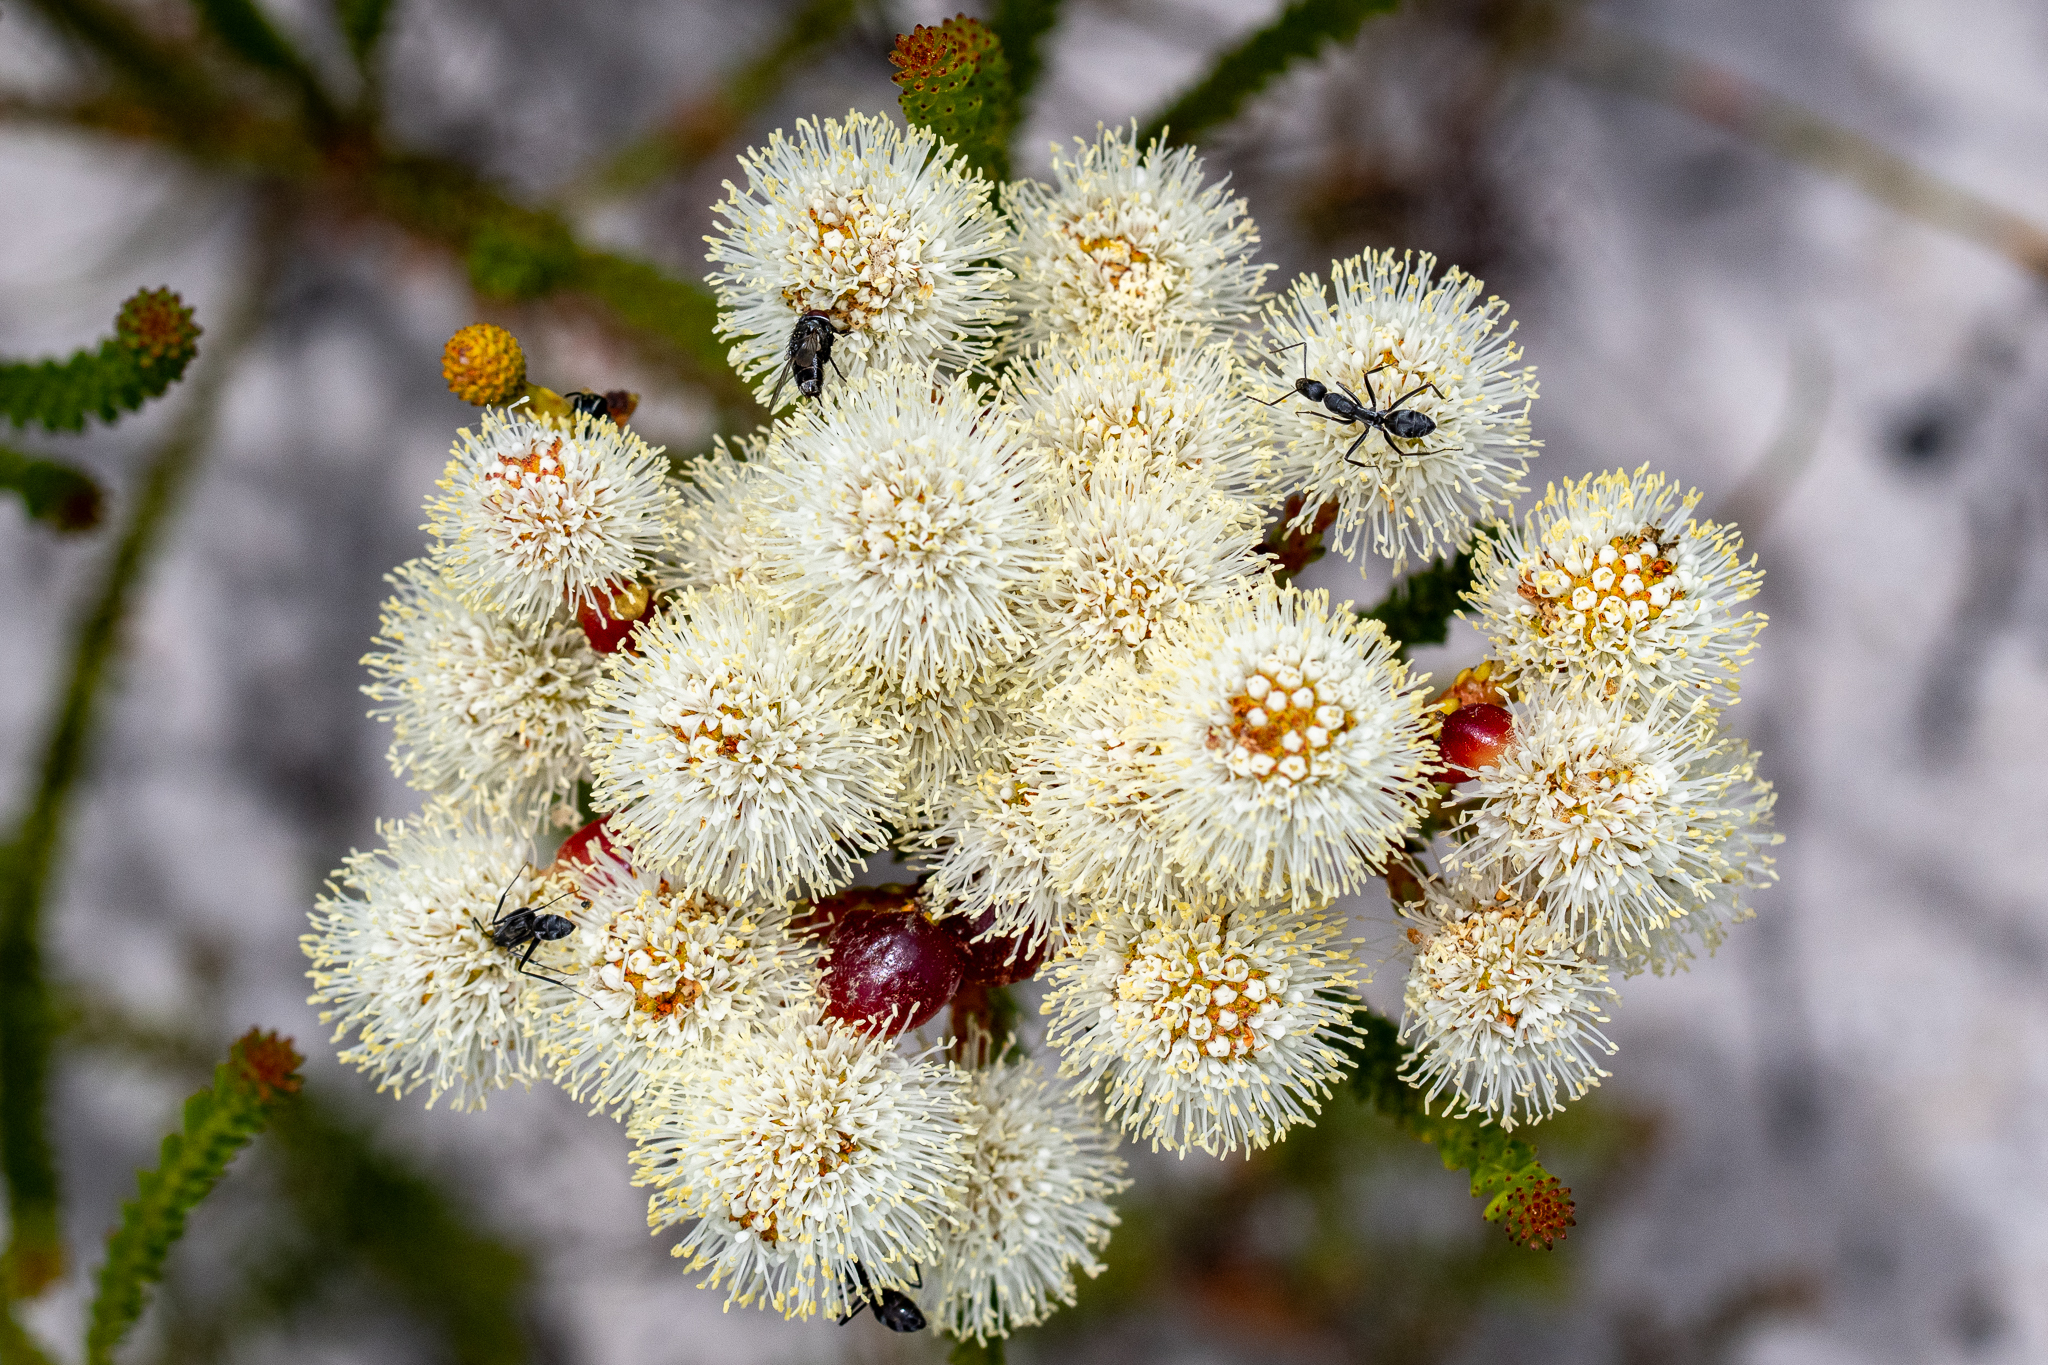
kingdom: Plantae
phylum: Tracheophyta
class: Magnoliopsida
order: Bruniales
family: Bruniaceae
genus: Berzelia
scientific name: Berzelia abrotanoides
